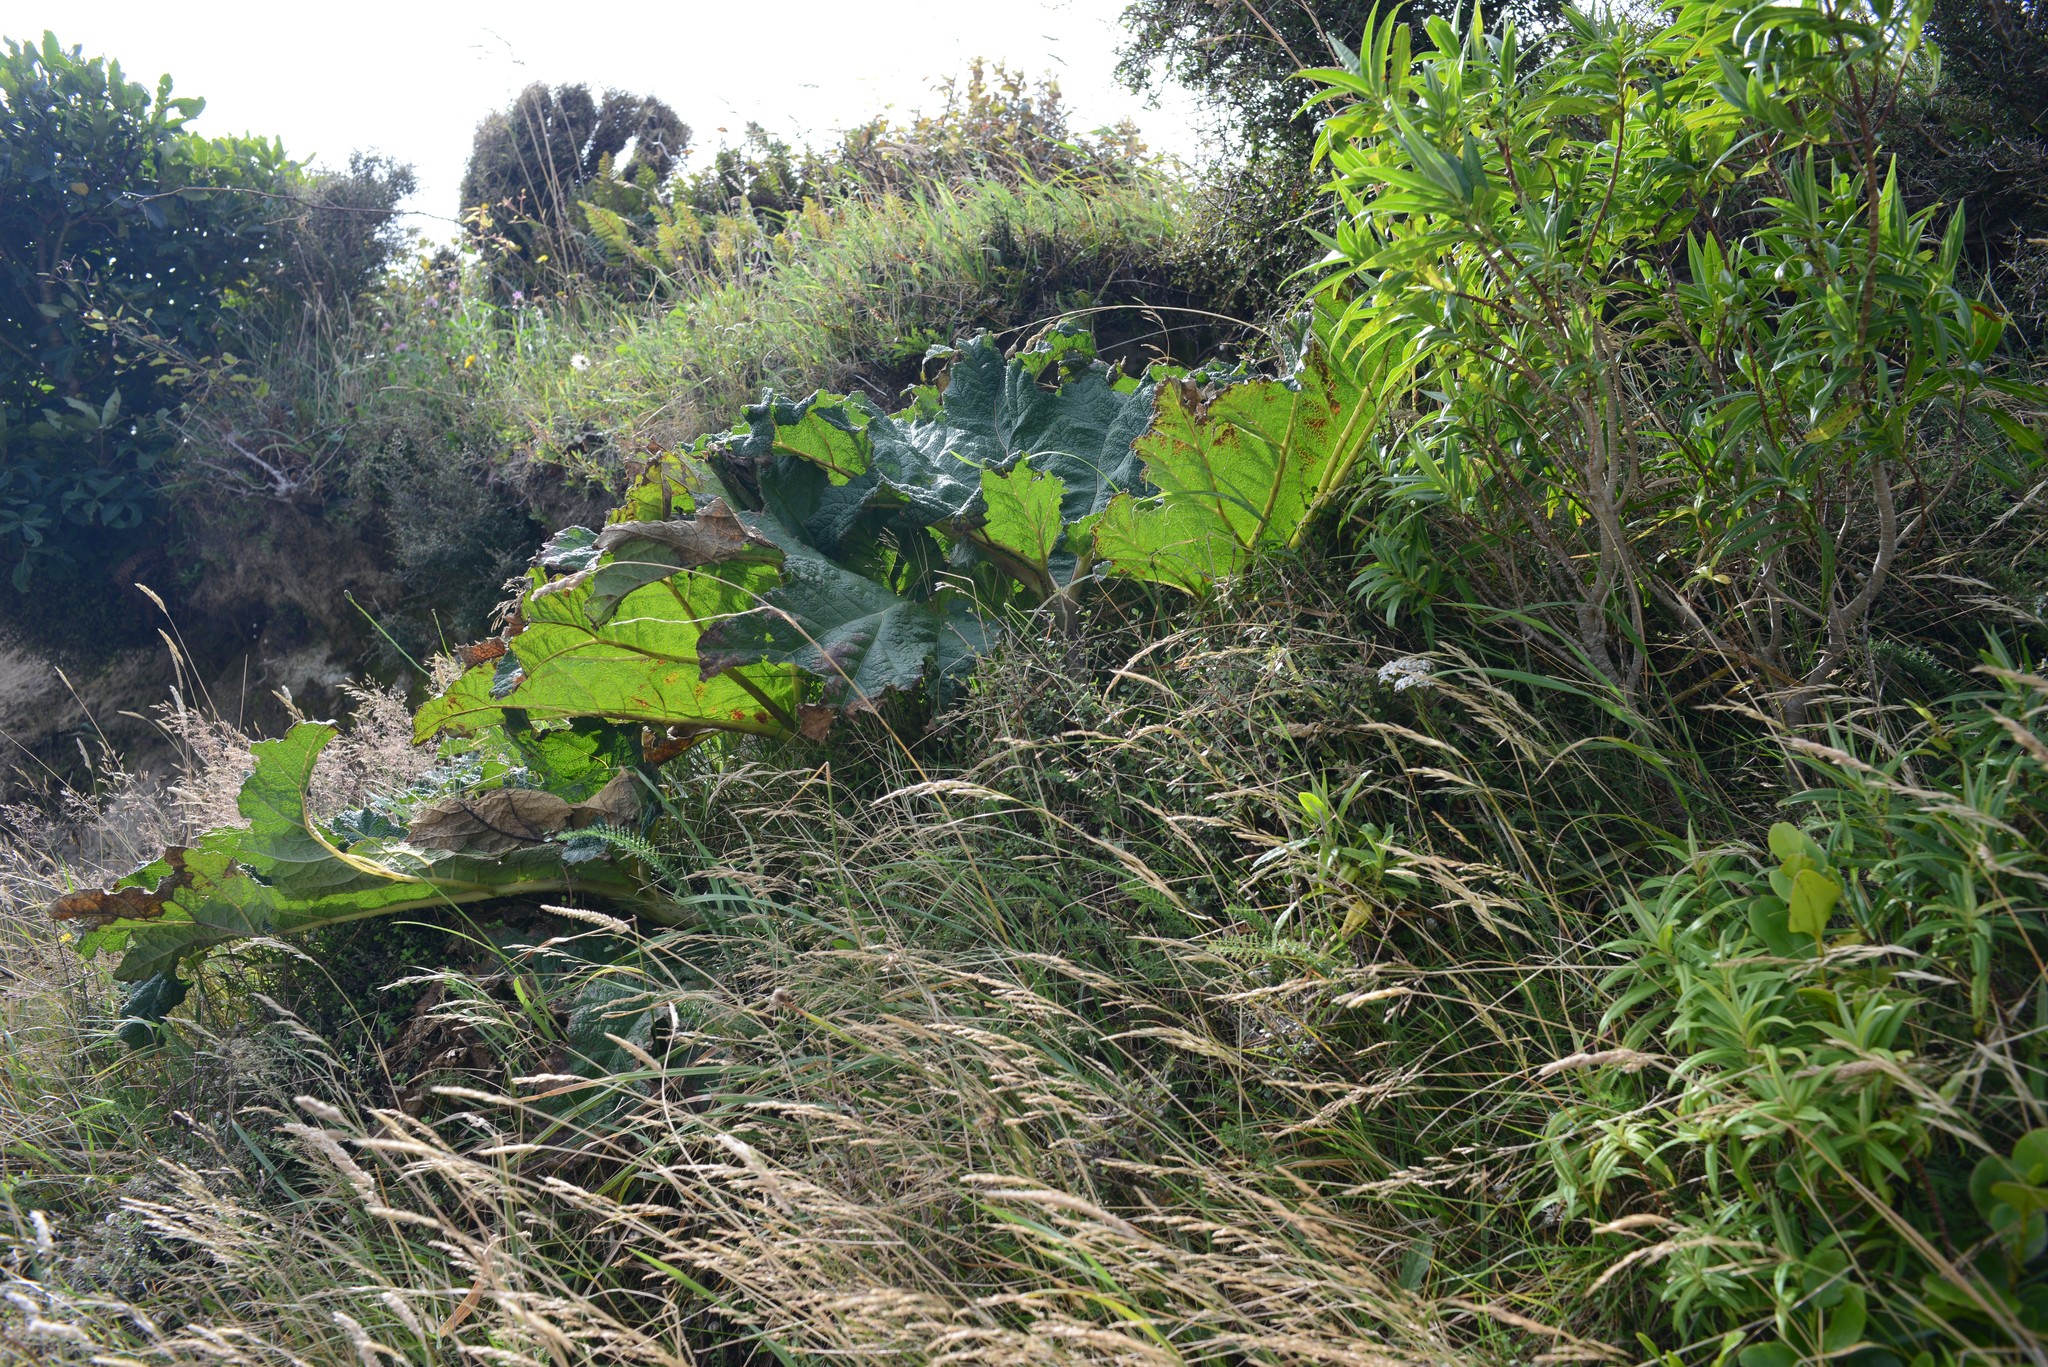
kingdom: Plantae
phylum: Tracheophyta
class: Magnoliopsida
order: Gunnerales
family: Gunneraceae
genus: Gunnera
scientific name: Gunnera tinctoria
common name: Giant-rhubarb
